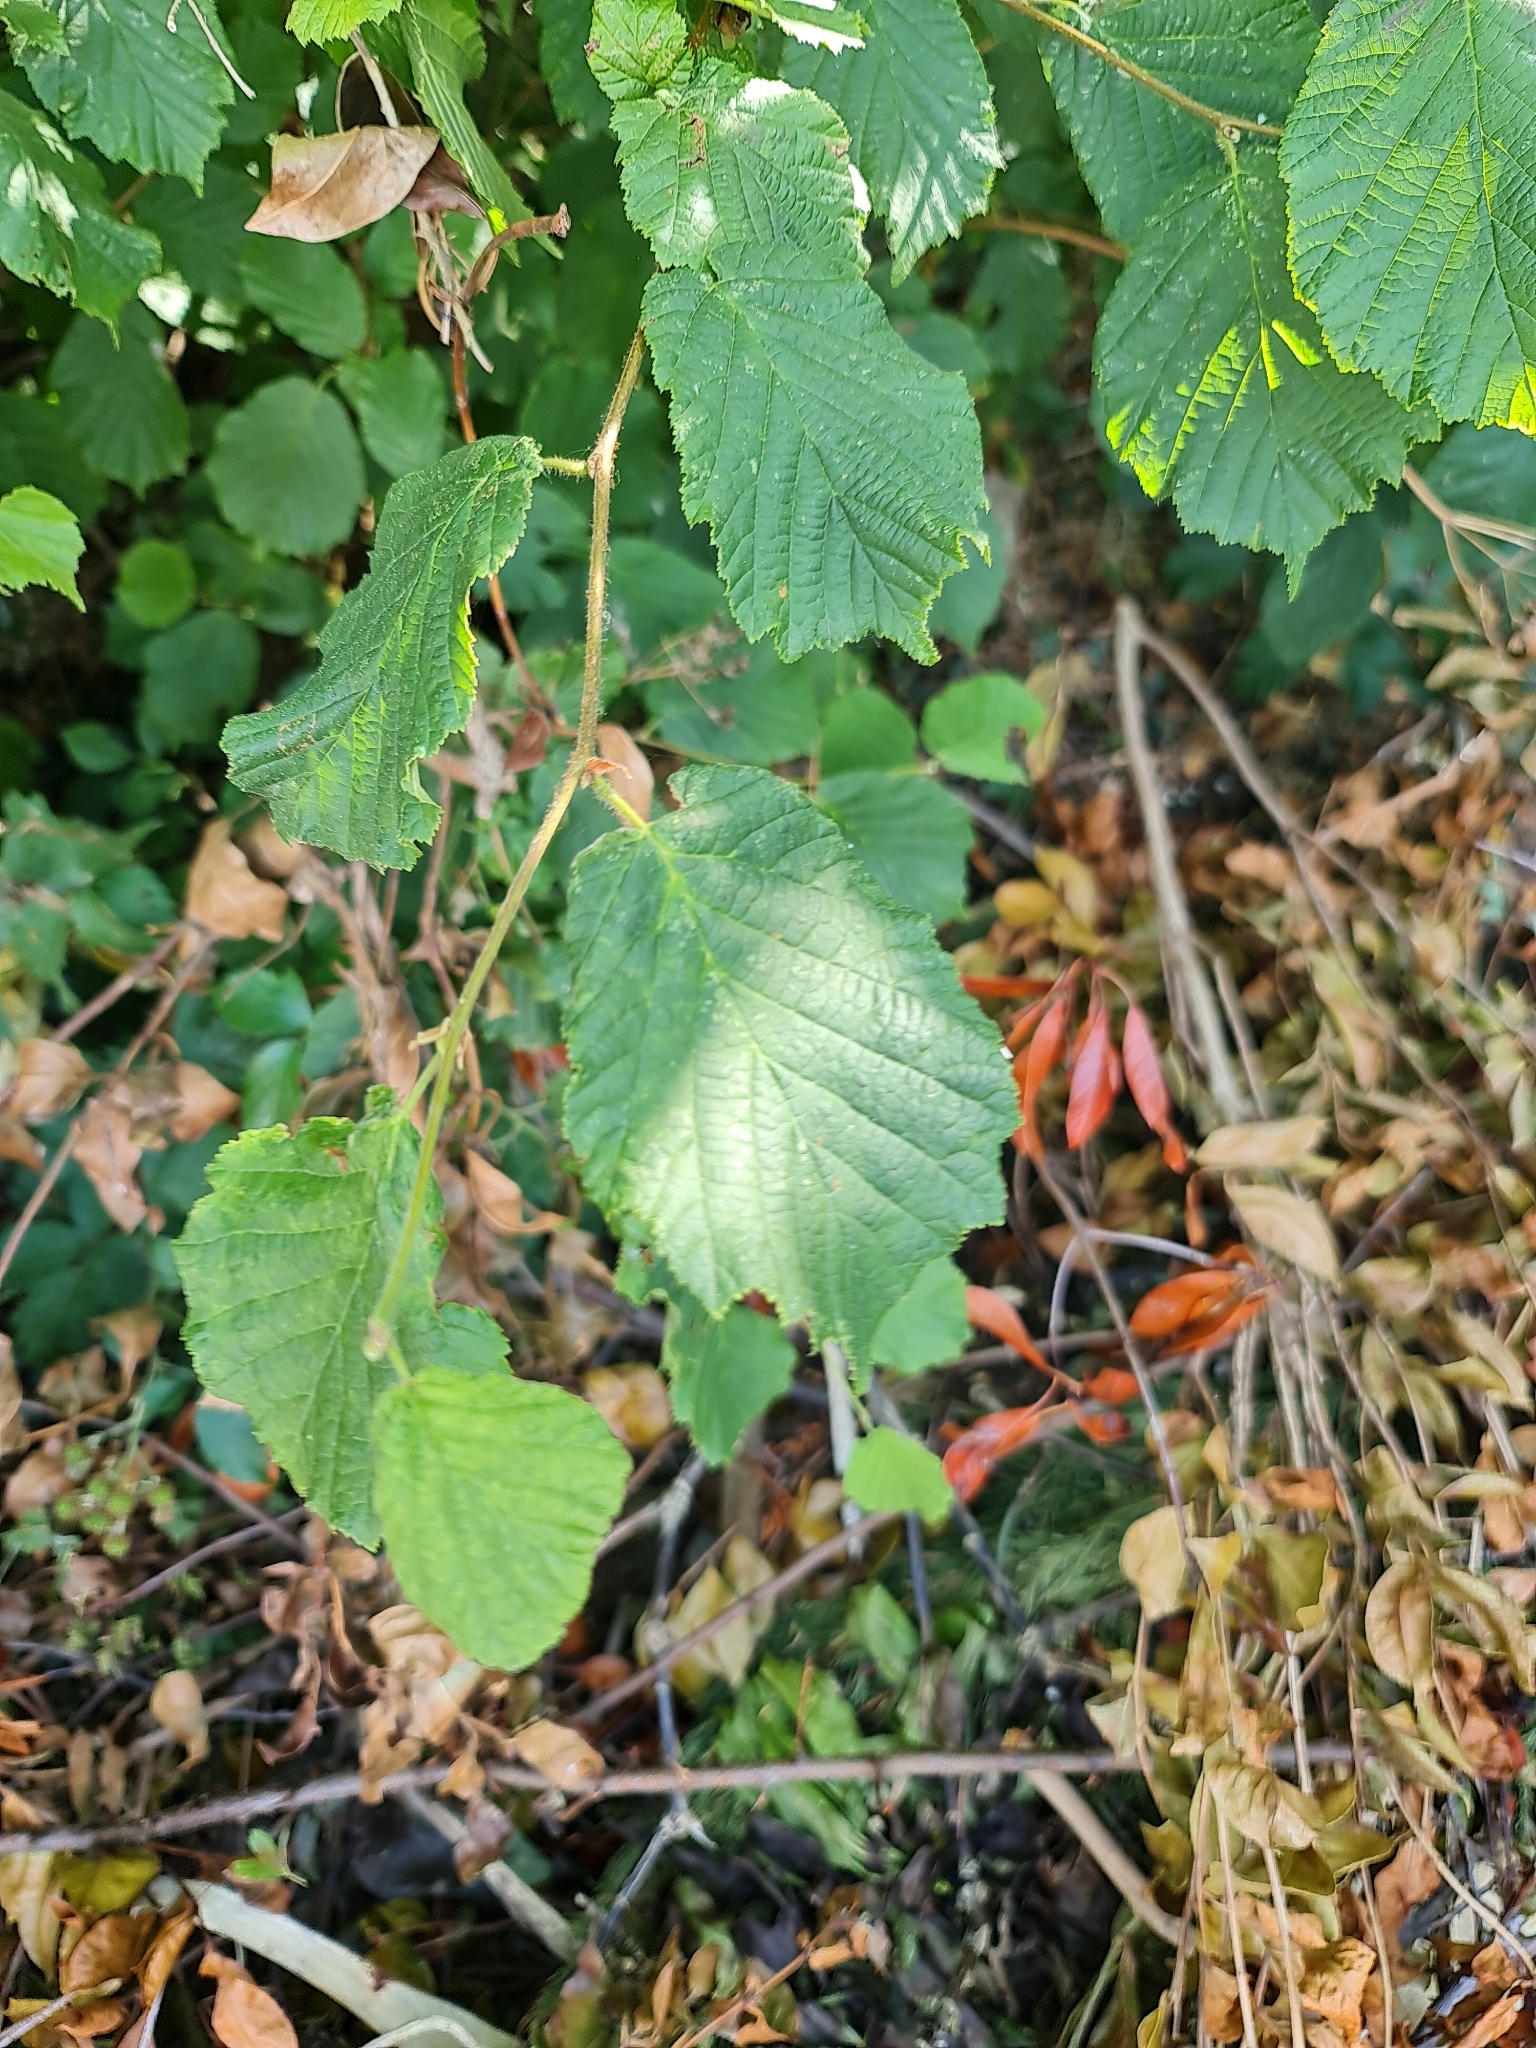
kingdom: Plantae
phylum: Tracheophyta
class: Magnoliopsida
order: Fagales
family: Betulaceae
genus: Corylus
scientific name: Corylus avellana
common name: European hazel
